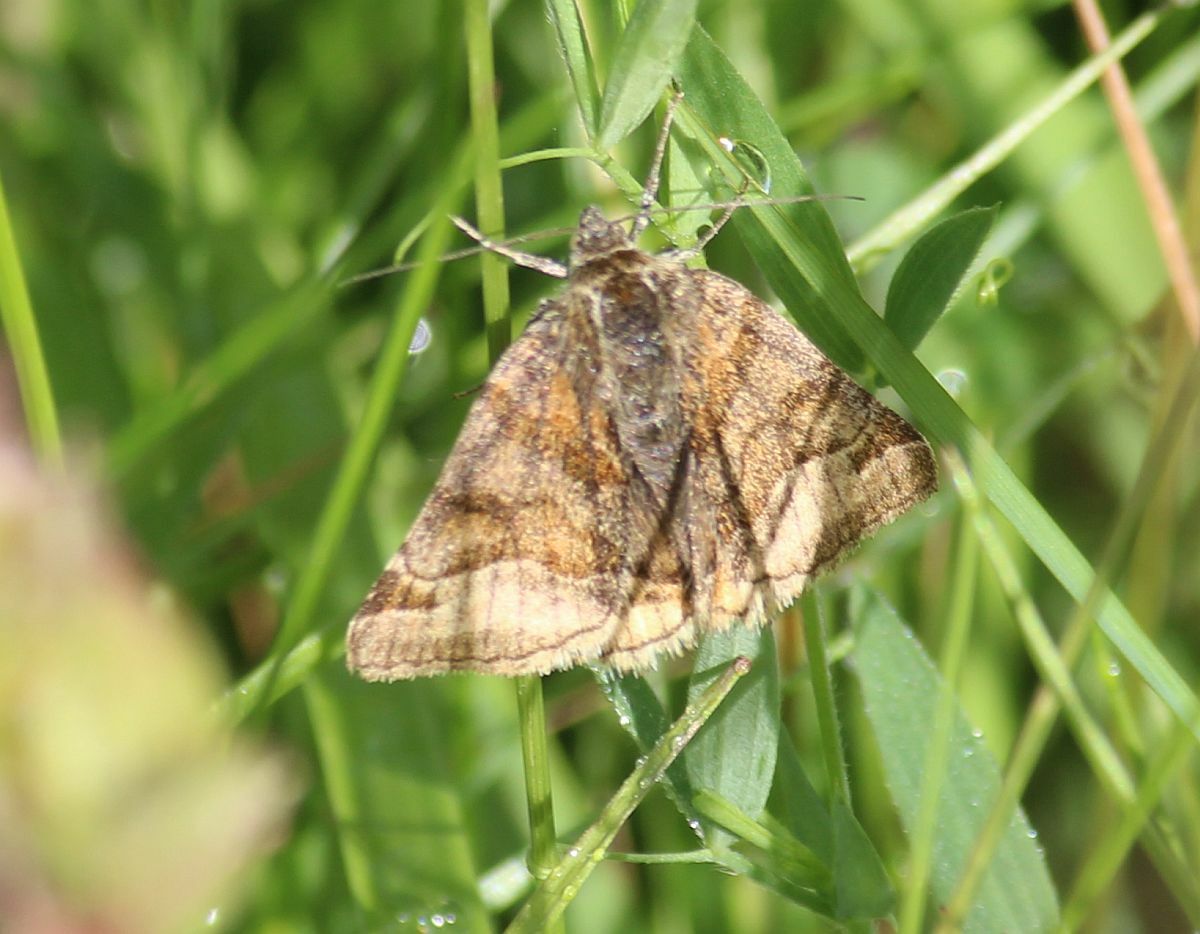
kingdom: Animalia
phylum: Arthropoda
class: Insecta
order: Lepidoptera
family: Erebidae
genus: Euclidia
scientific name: Euclidia glyphica
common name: Burnet companion
